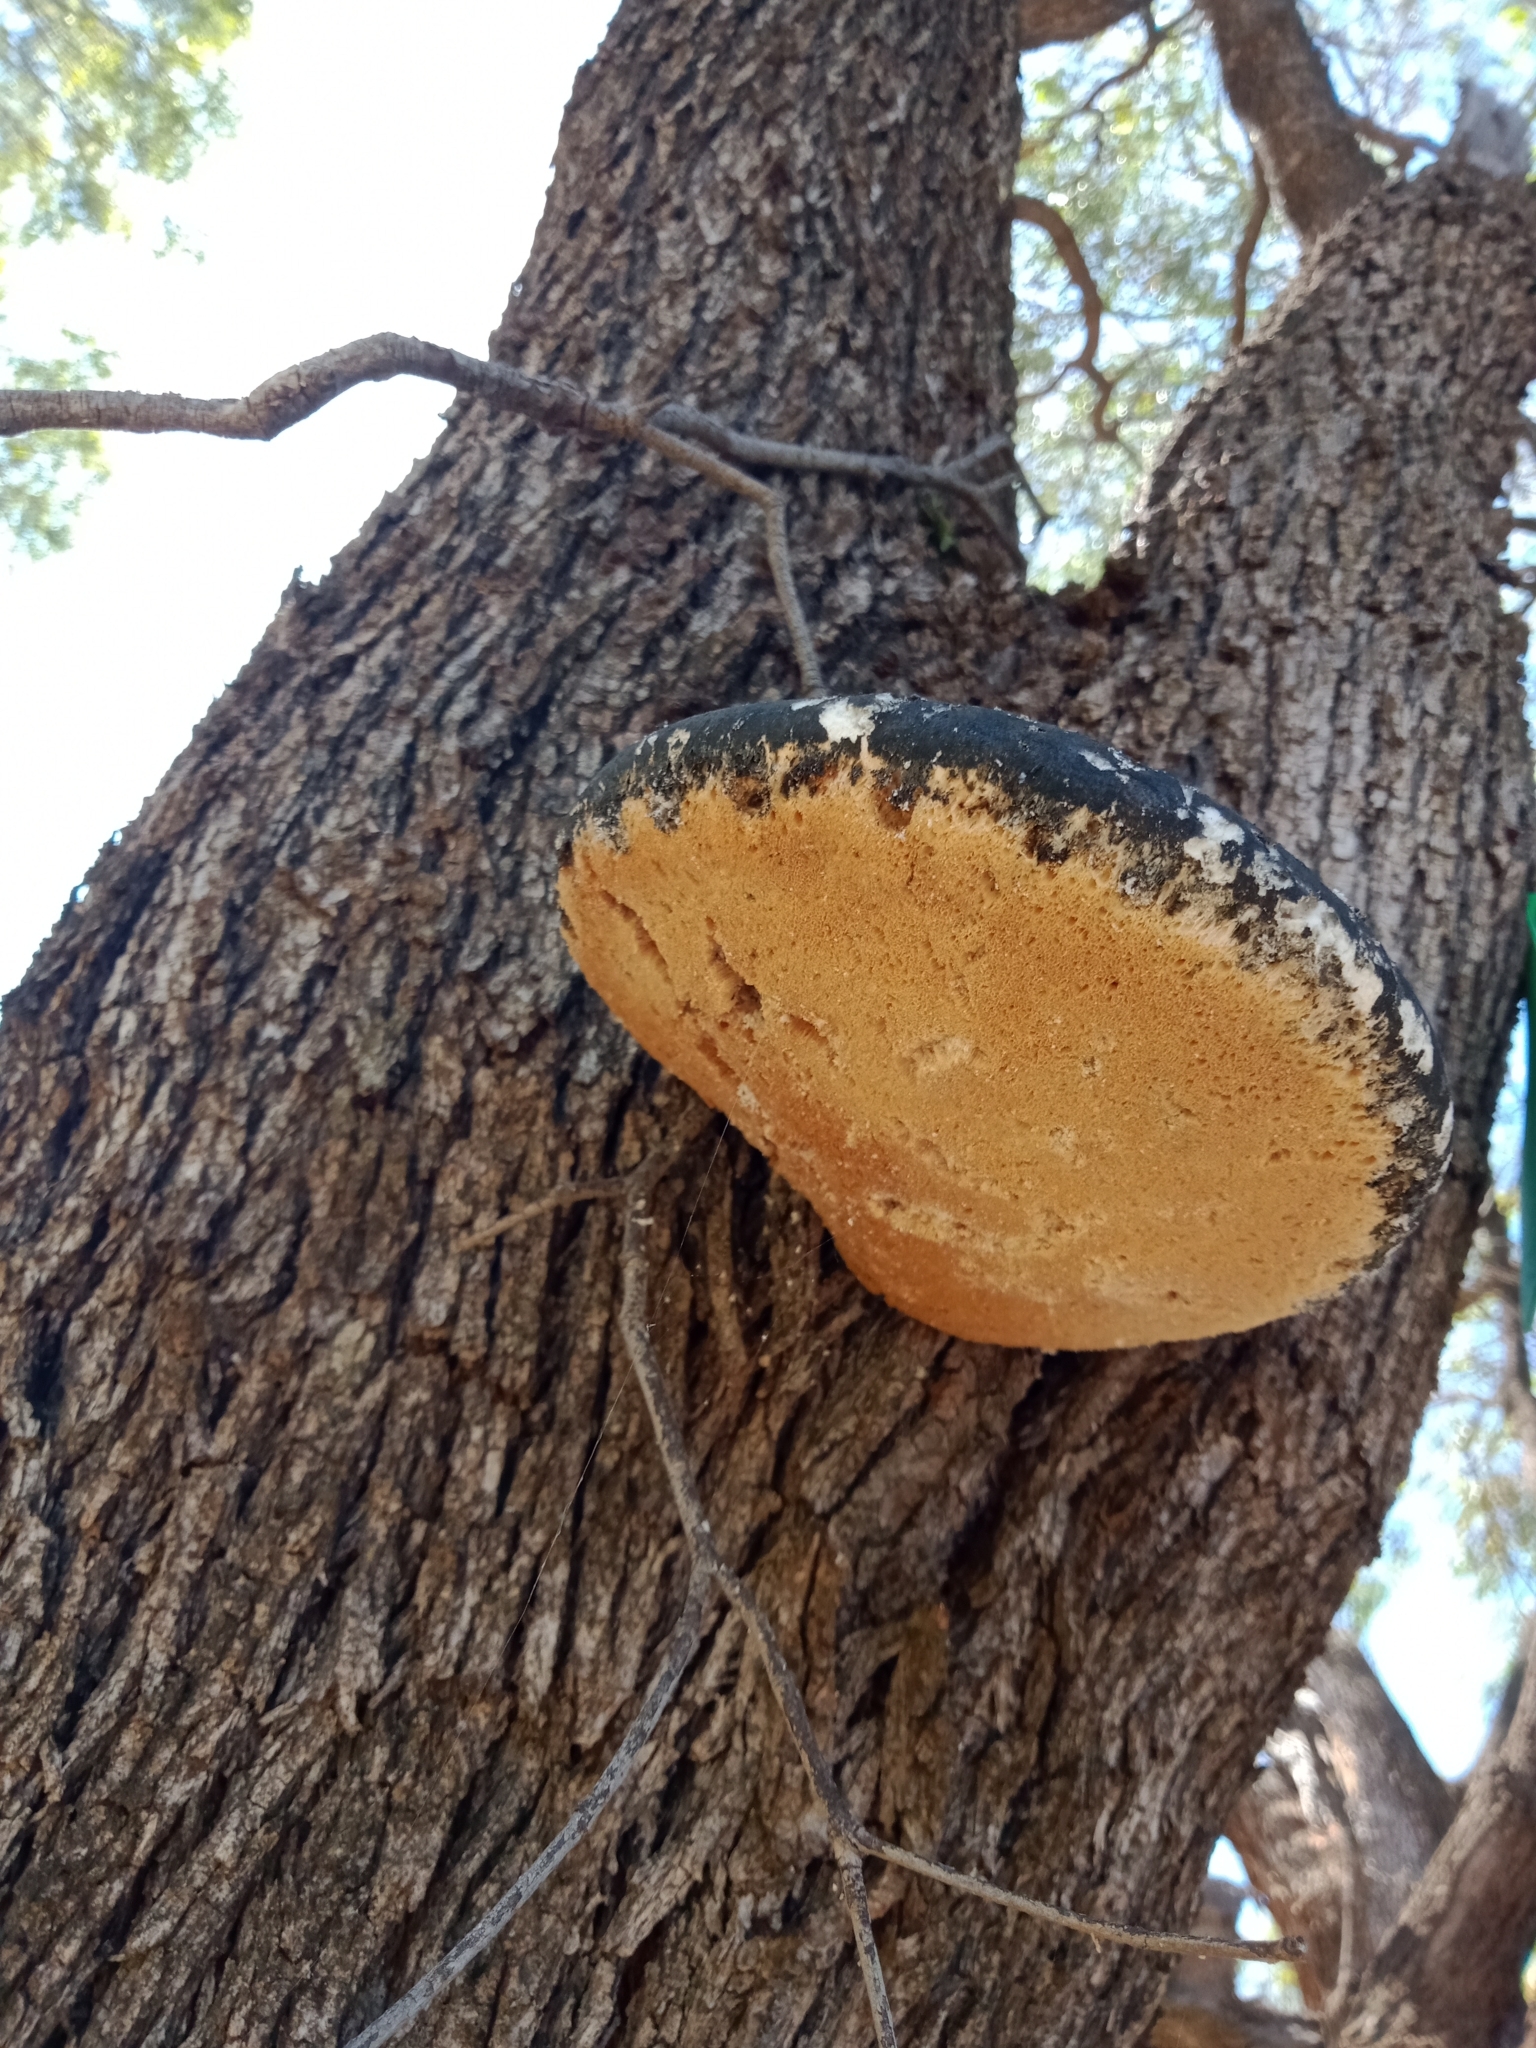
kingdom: Fungi
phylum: Basidiomycota
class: Agaricomycetes
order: Polyporales
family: Laetiporaceae
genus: Laetiporus
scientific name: Laetiporus portentosus
